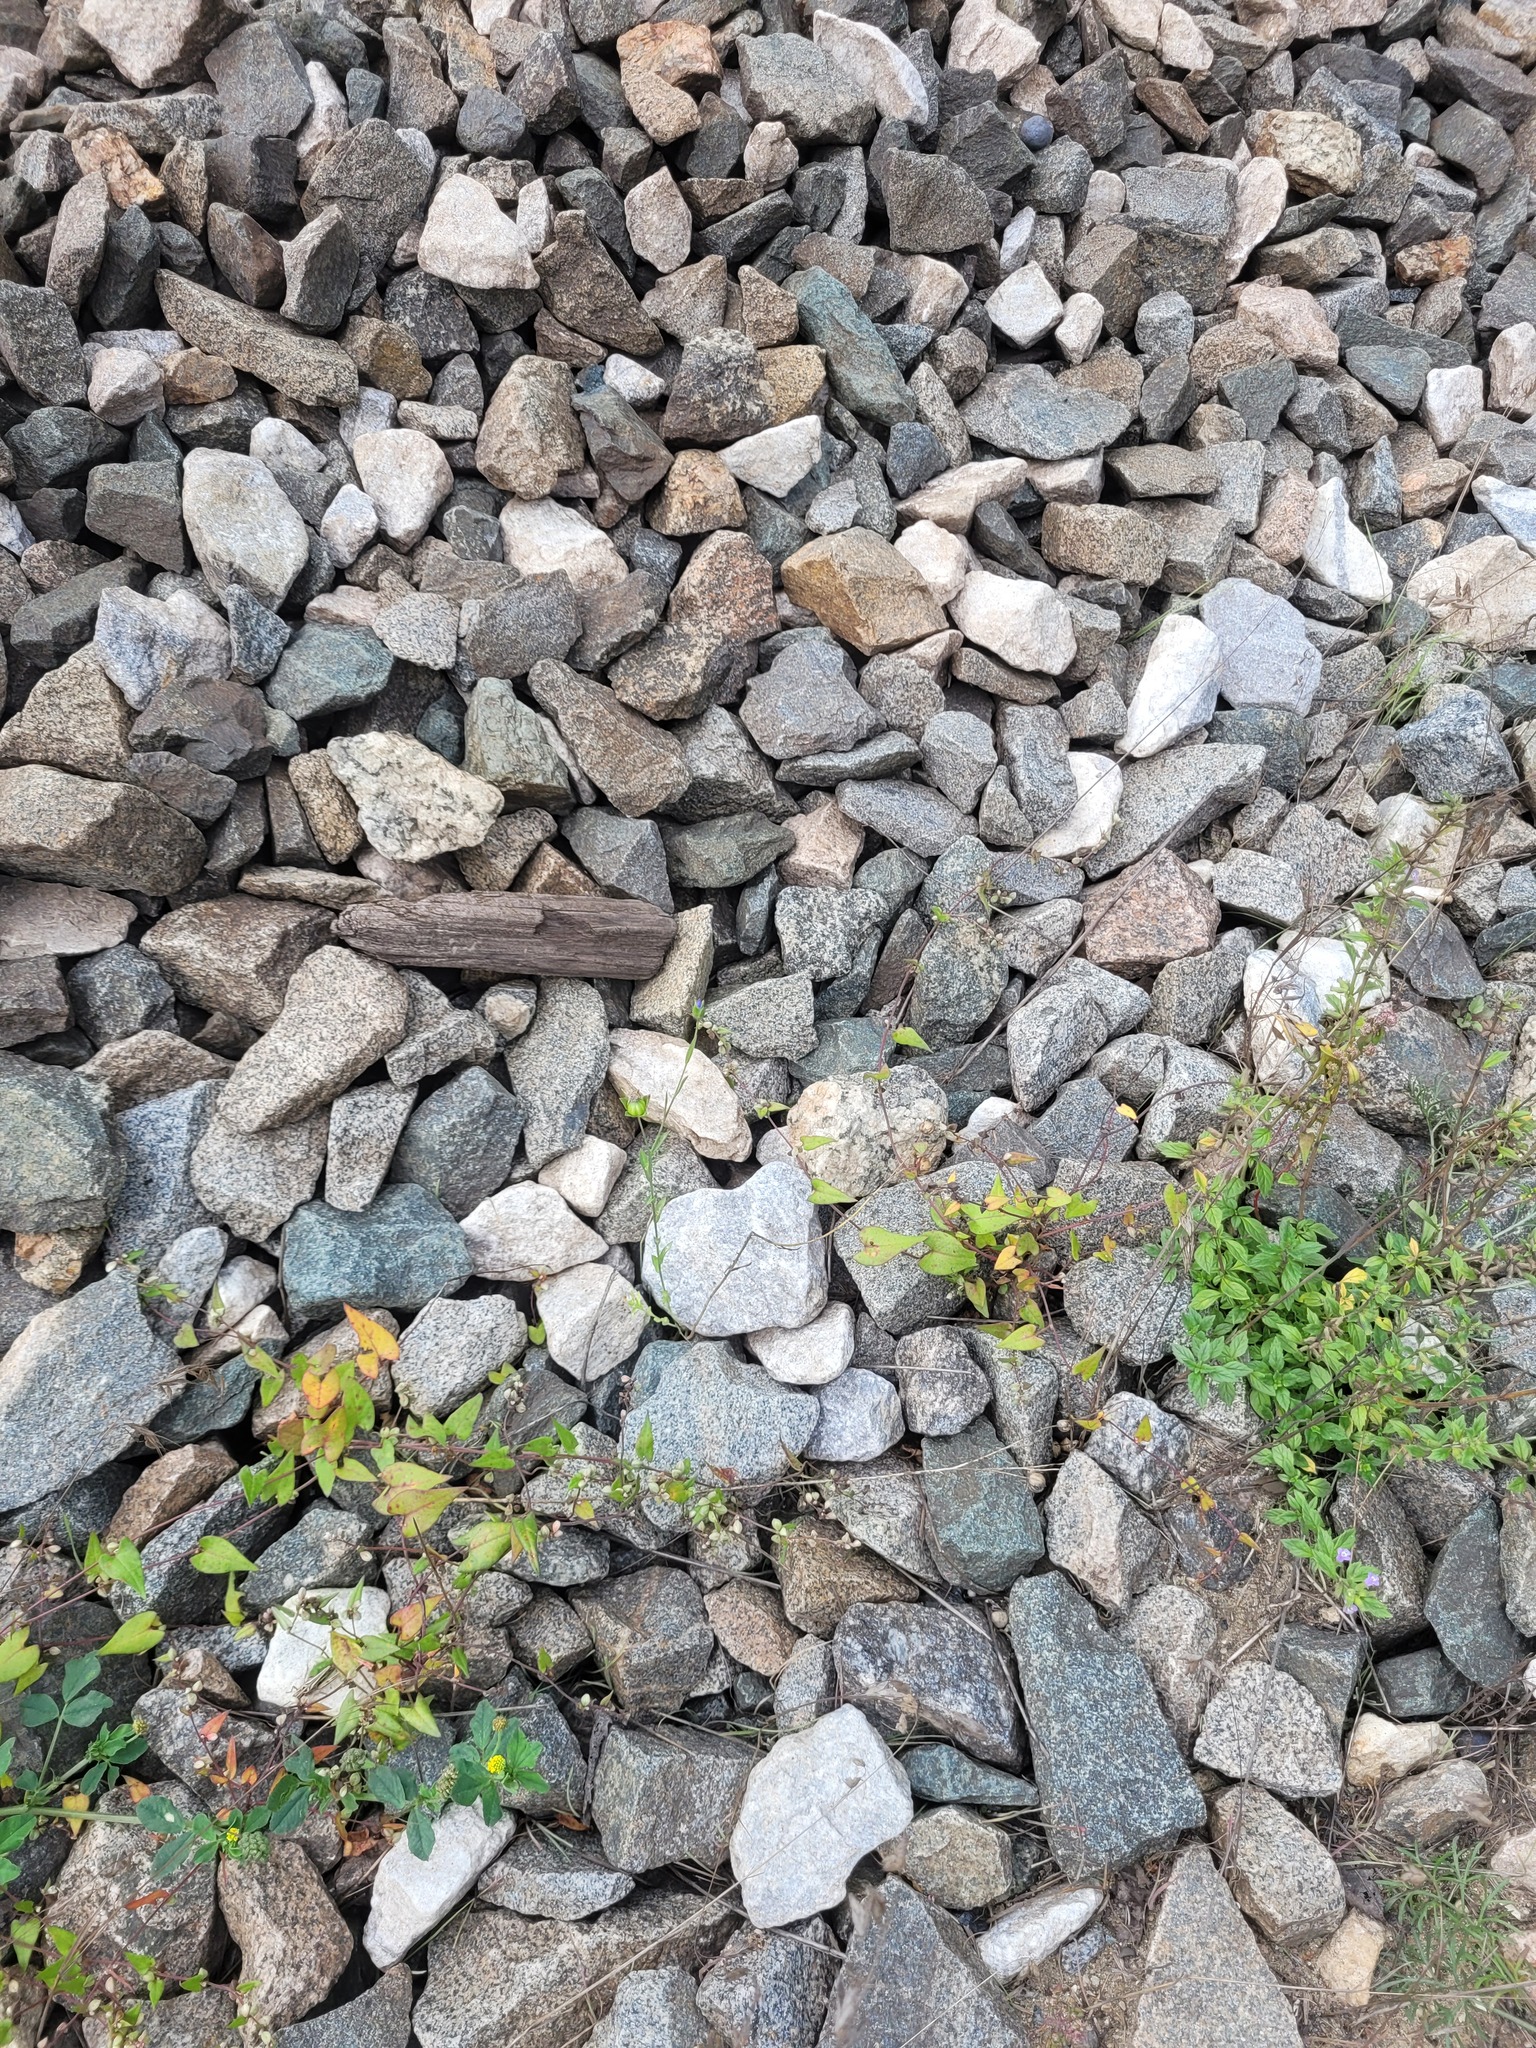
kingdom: Plantae
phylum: Tracheophyta
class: Magnoliopsida
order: Malpighiales
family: Linaceae
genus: Linum
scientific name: Linum usitatissimum
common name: Flax
